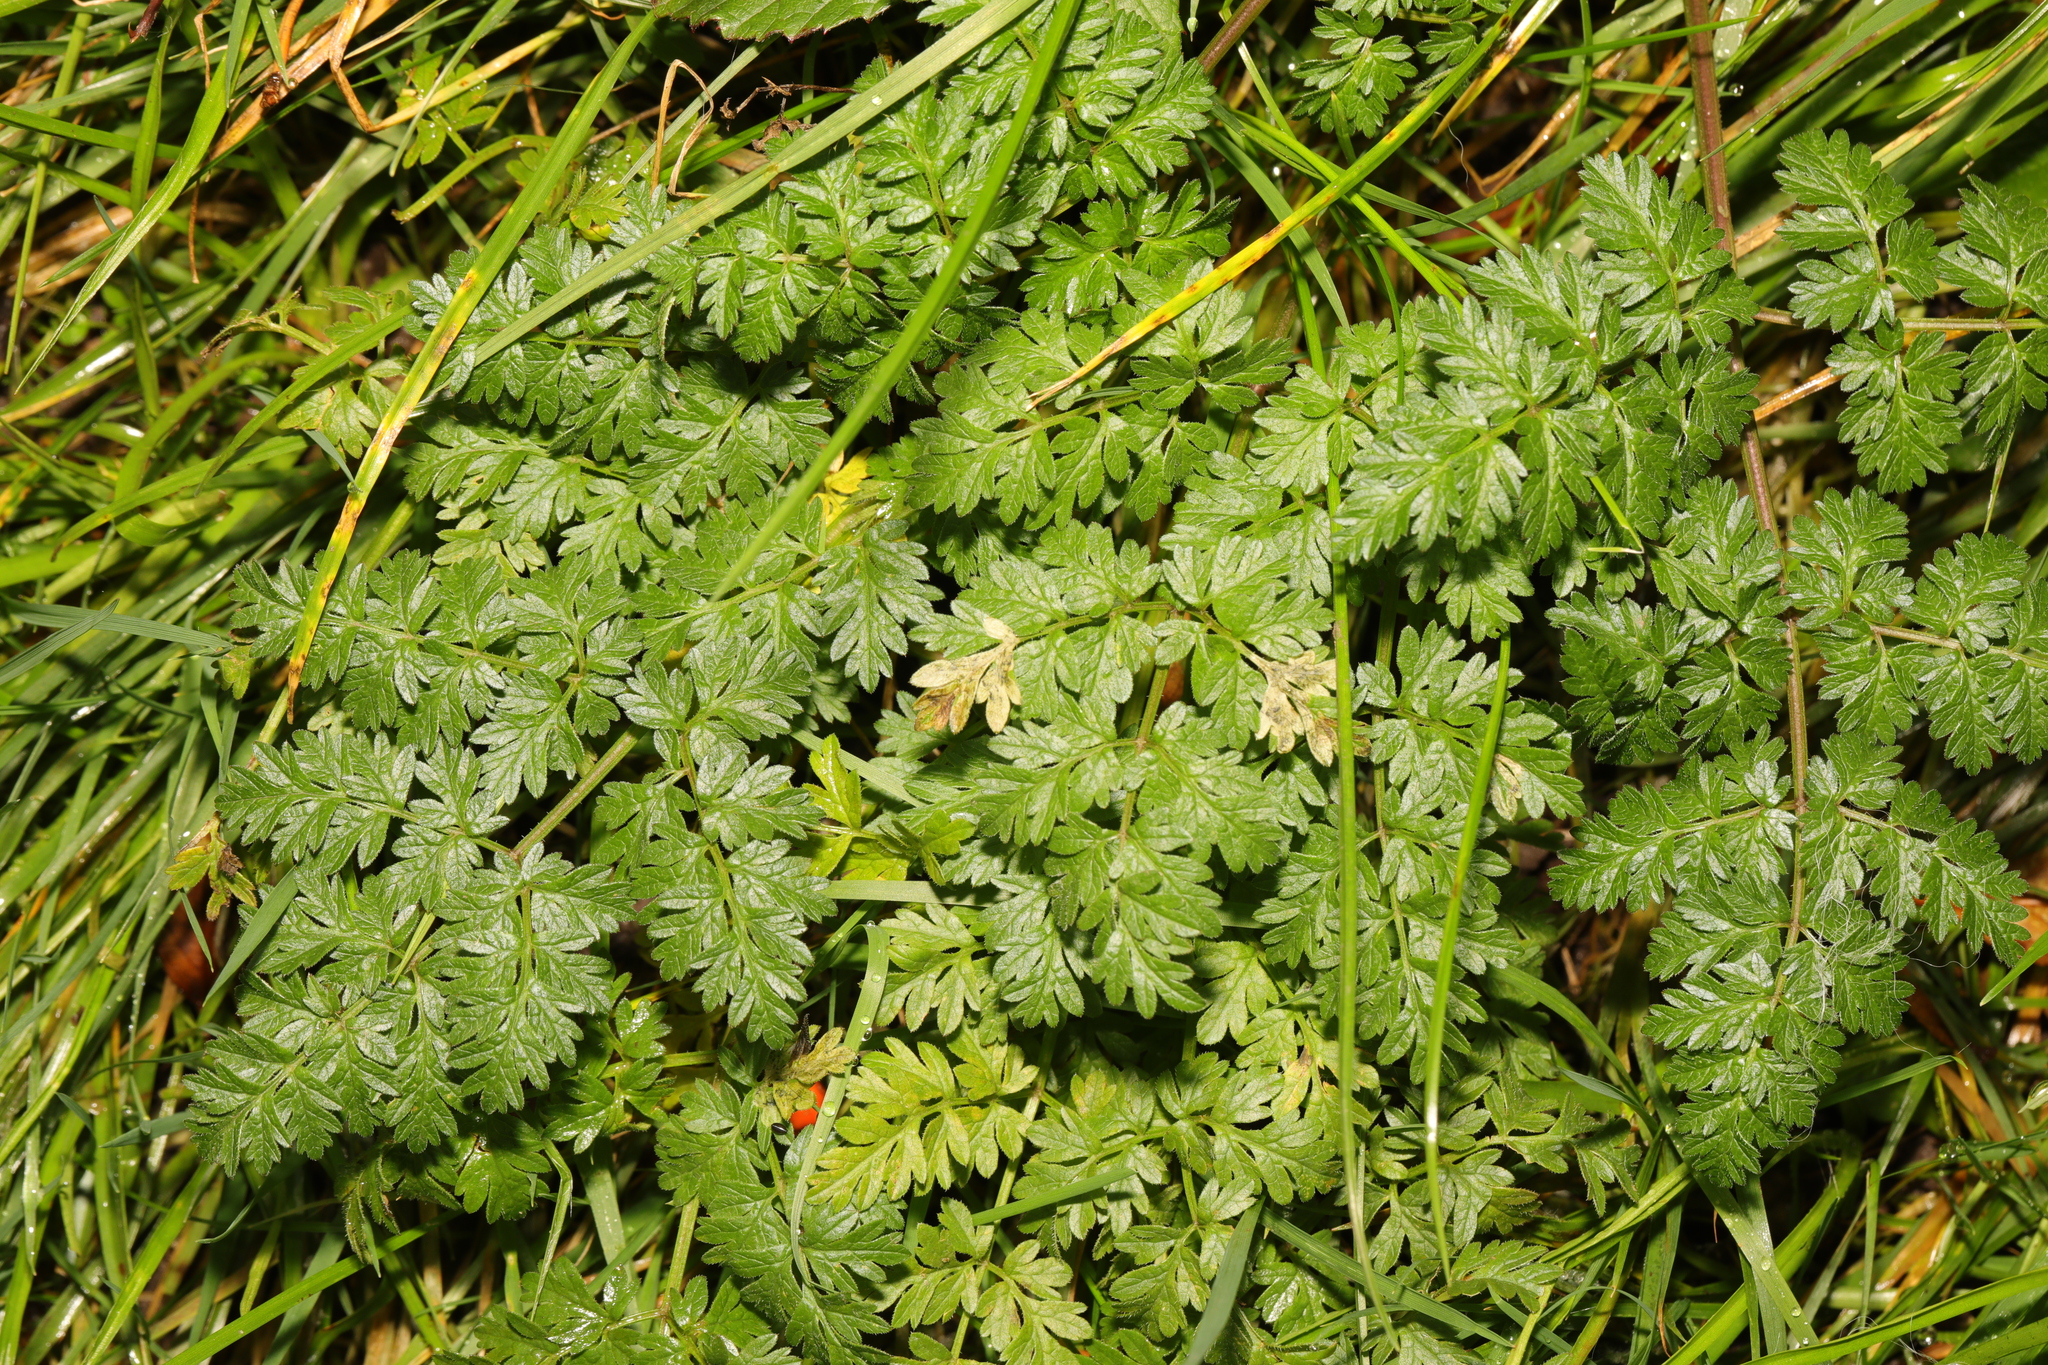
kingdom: Plantae
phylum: Tracheophyta
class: Magnoliopsida
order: Apiales
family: Apiaceae
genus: Anthriscus
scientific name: Anthriscus sylvestris
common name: Cow parsley
